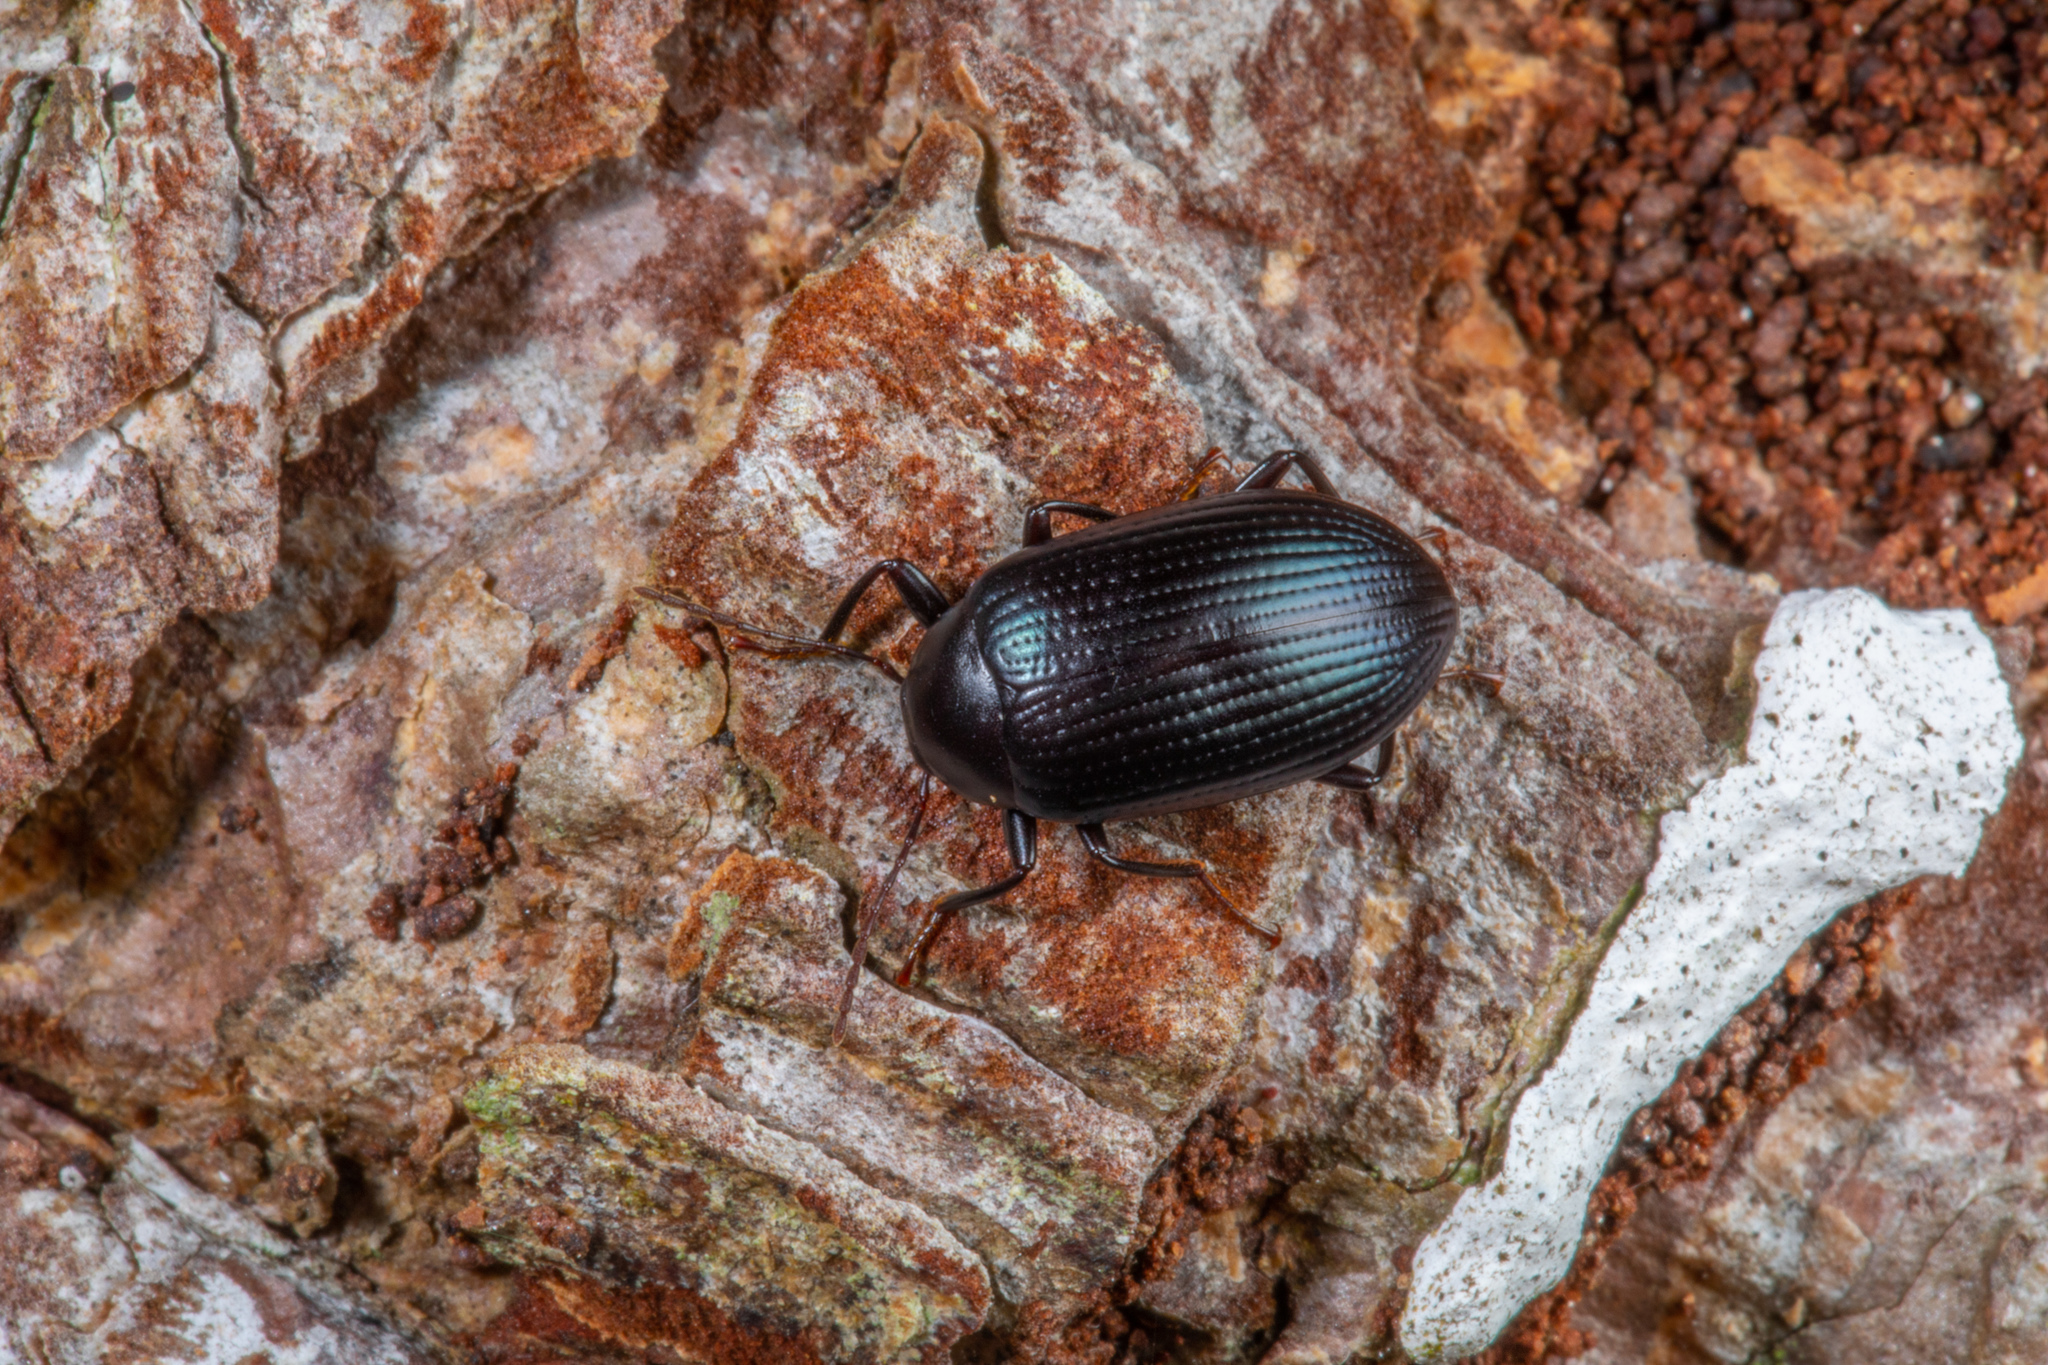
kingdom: Animalia
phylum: Arthropoda
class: Insecta
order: Coleoptera
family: Tenebrionidae
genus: Amarygmus
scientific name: Amarygmus
